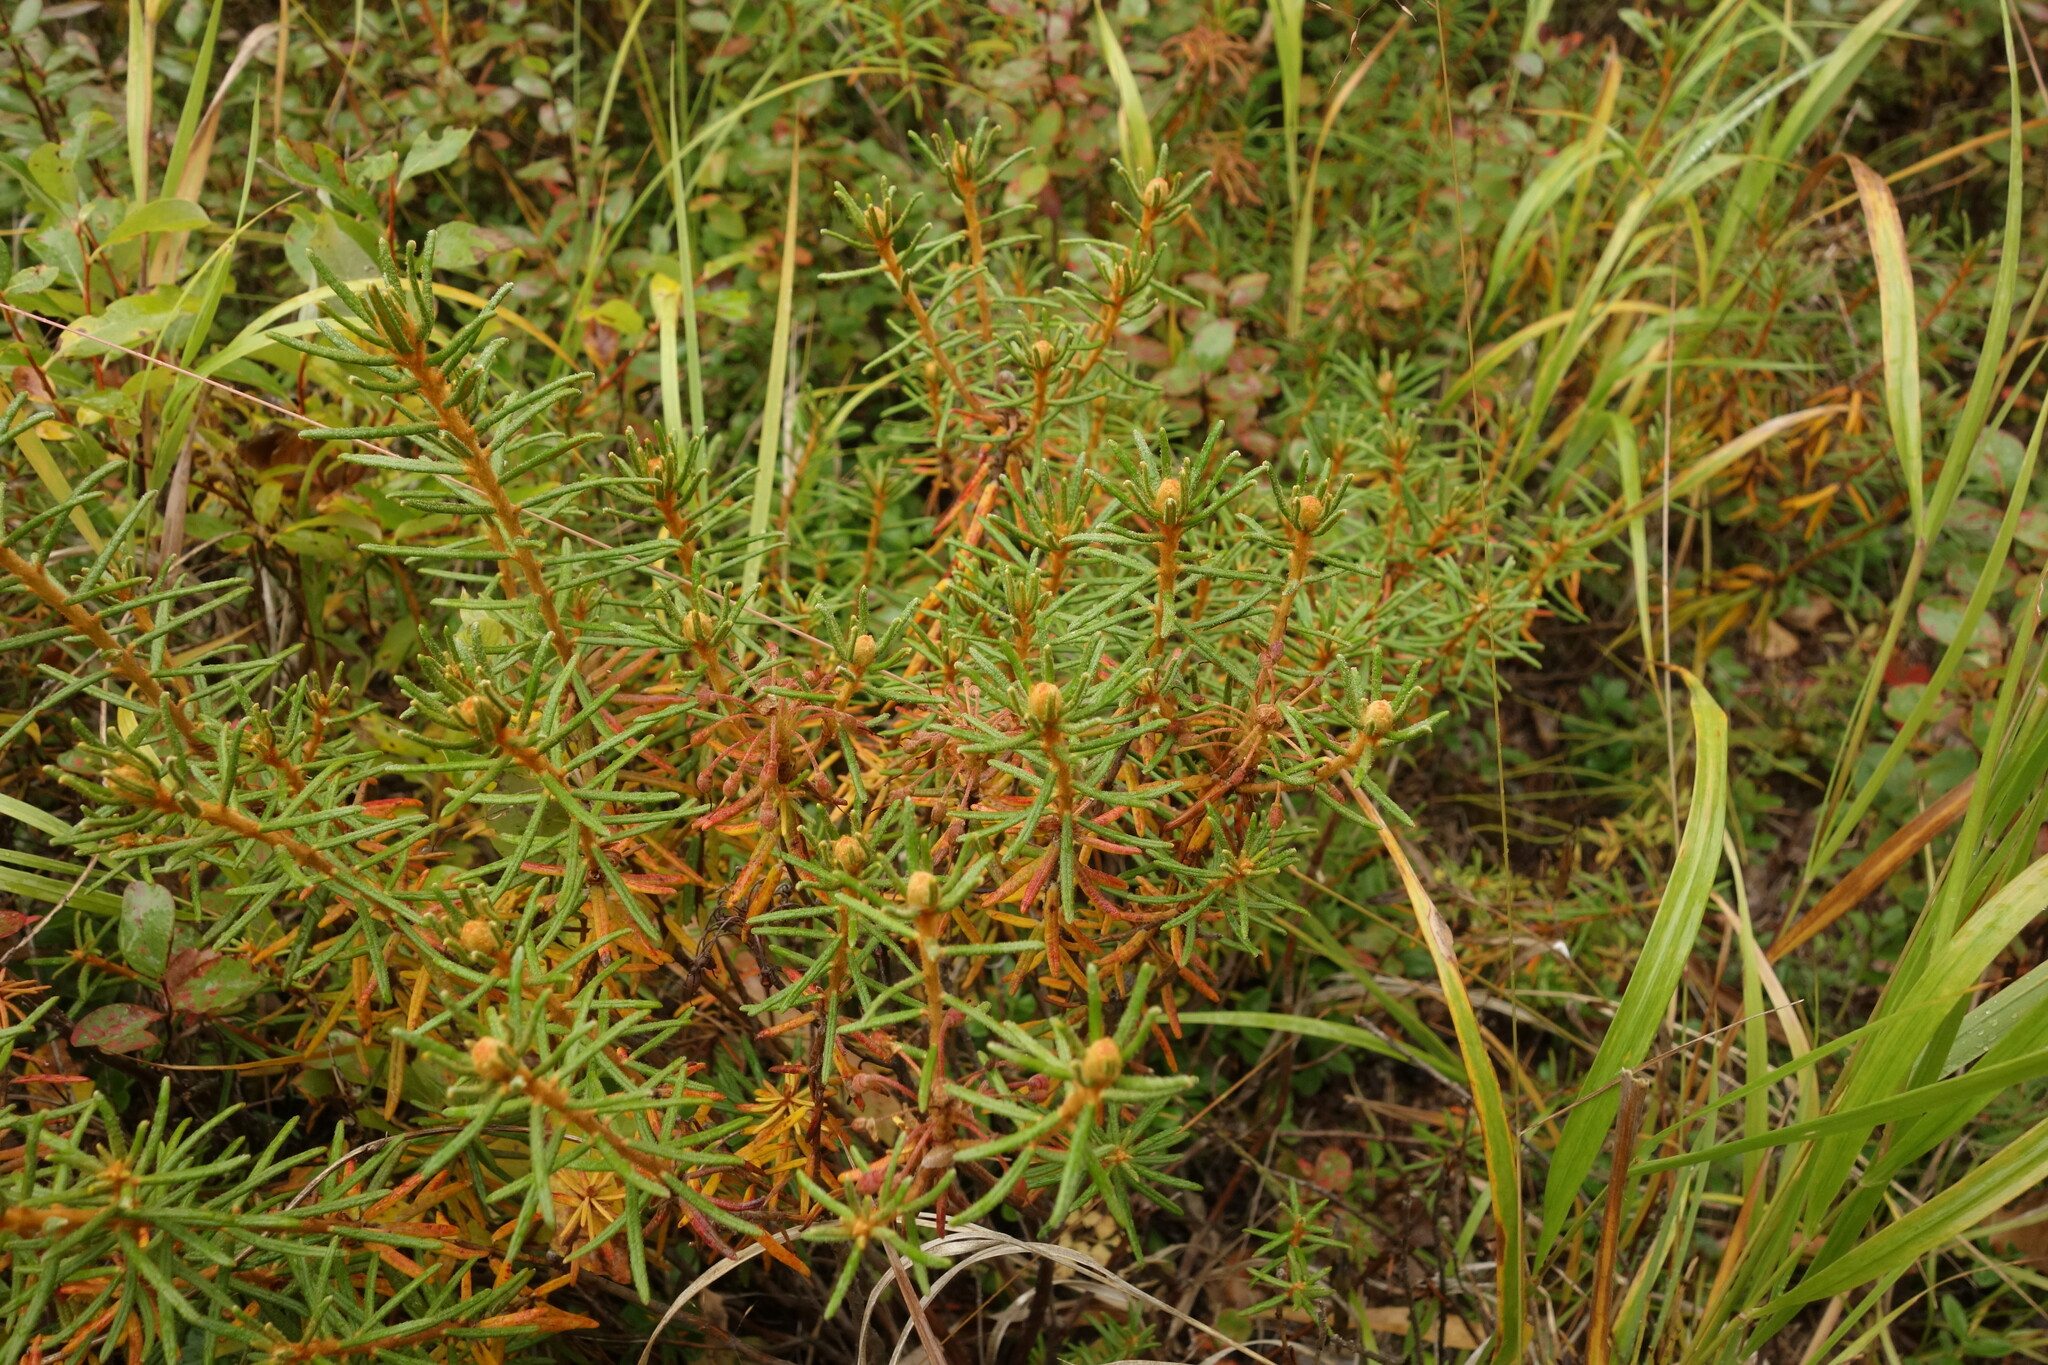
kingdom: Plantae
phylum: Tracheophyta
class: Magnoliopsida
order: Ericales
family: Ericaceae
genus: Rhododendron
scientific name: Rhododendron tomentosum
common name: Marsh labrador tea
